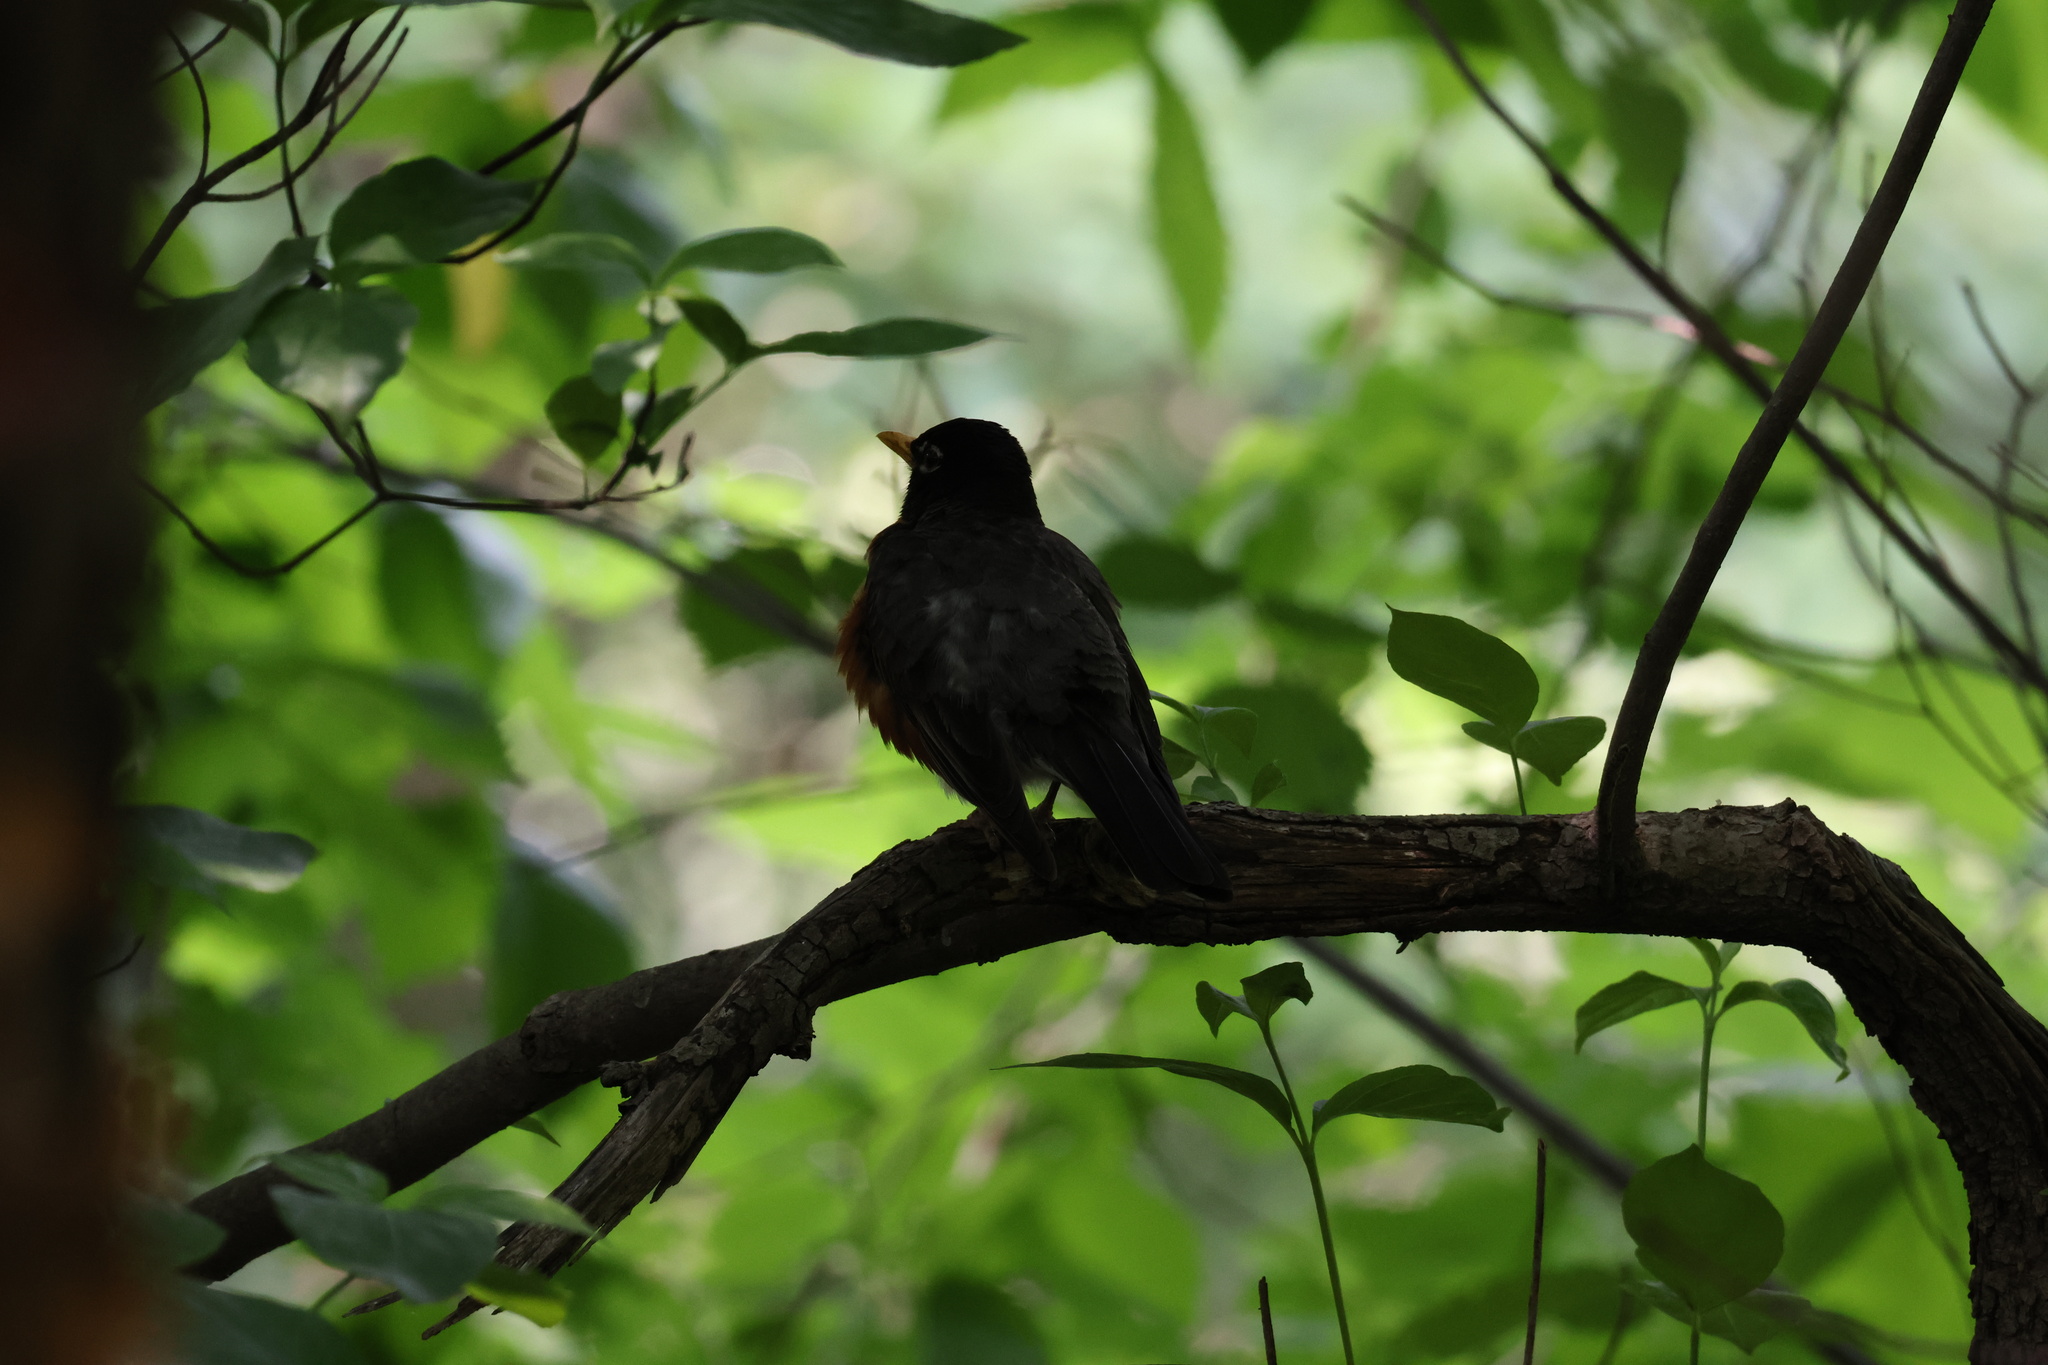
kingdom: Animalia
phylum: Chordata
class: Aves
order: Passeriformes
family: Turdidae
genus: Turdus
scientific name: Turdus migratorius
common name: American robin
